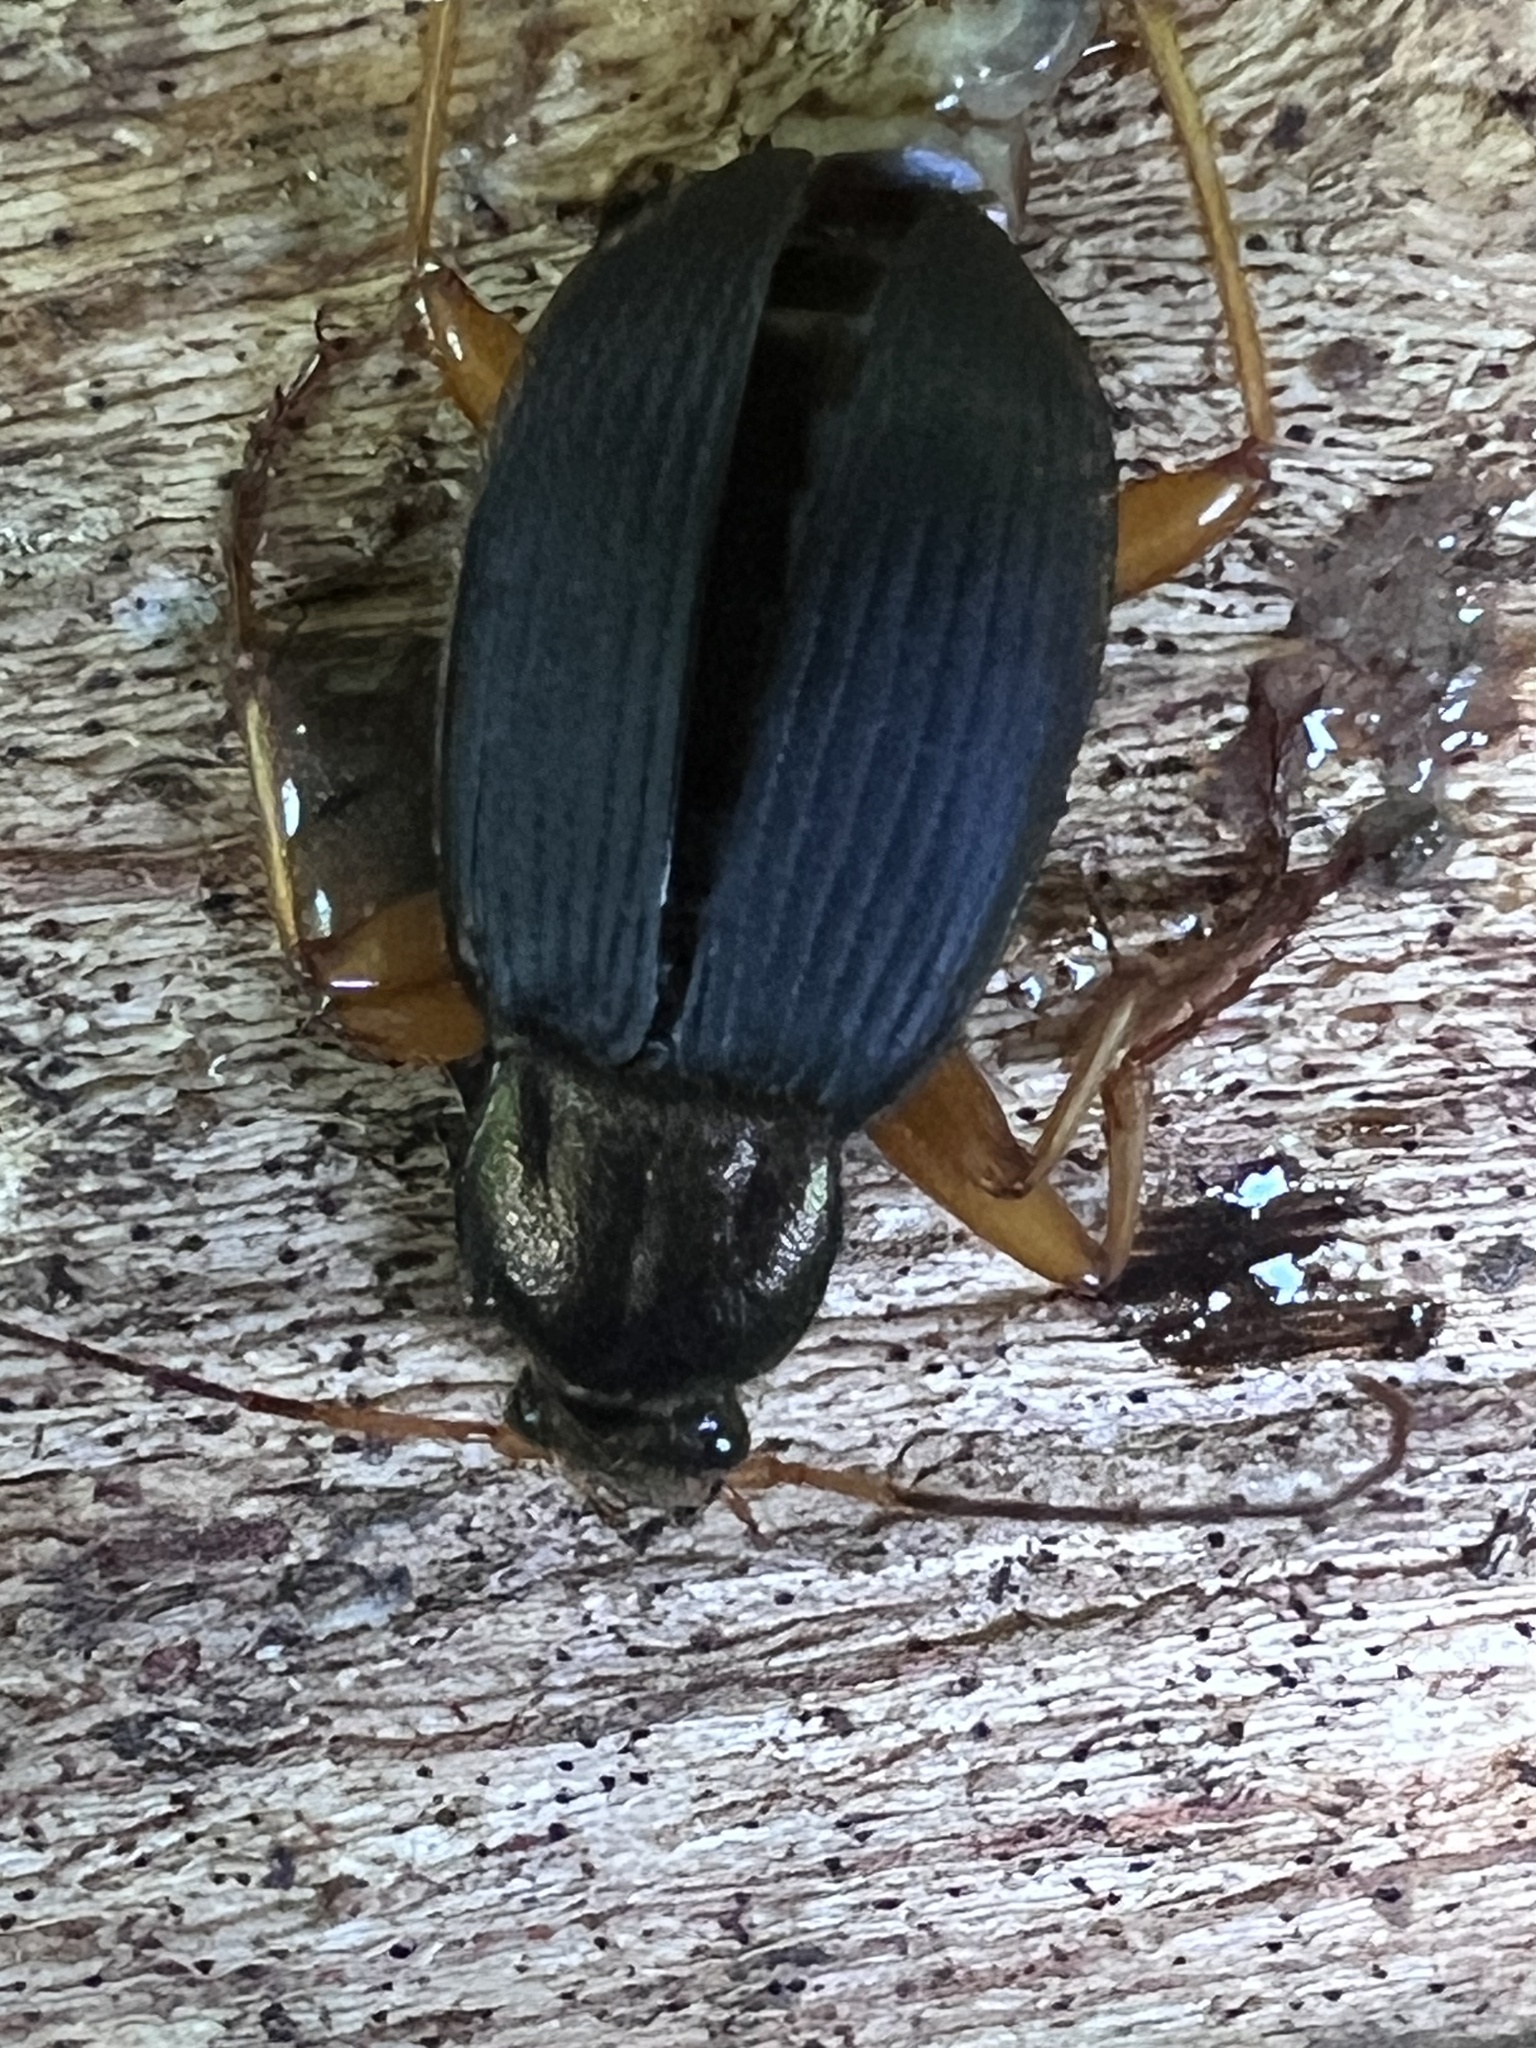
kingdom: Animalia
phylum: Arthropoda
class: Insecta
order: Coleoptera
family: Carabidae
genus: Chlaenius
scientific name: Chlaenius aestivus
